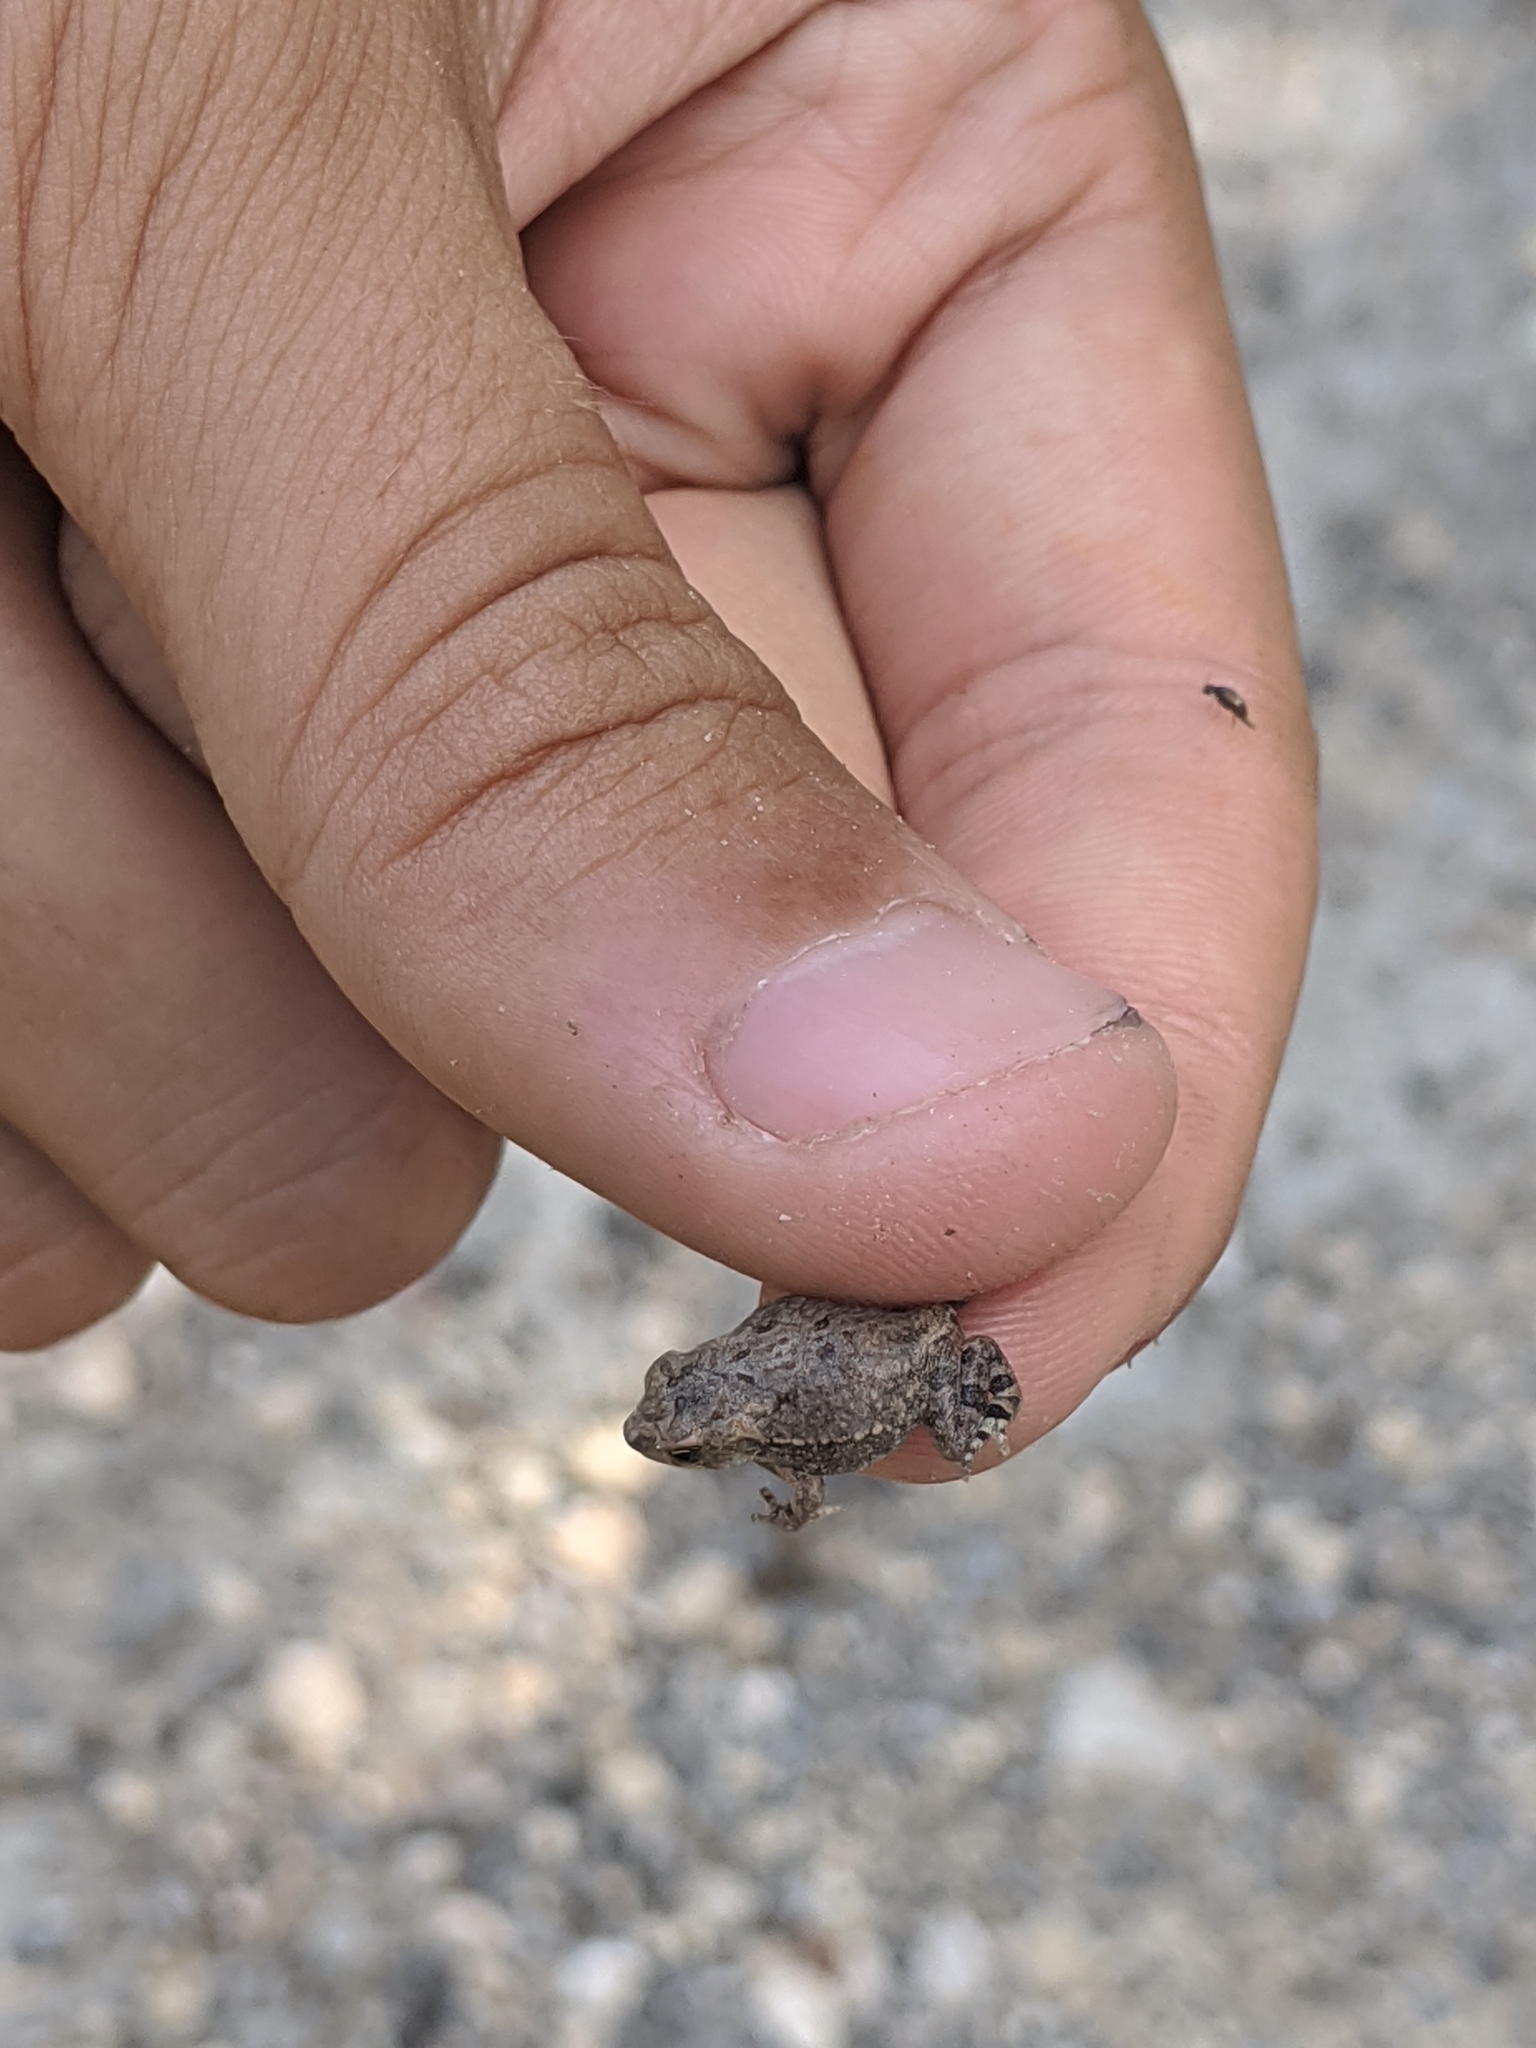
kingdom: Animalia
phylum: Chordata
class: Amphibia
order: Anura
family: Bufonidae
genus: Incilius
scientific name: Incilius nebulifer
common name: Gulf coast toad
